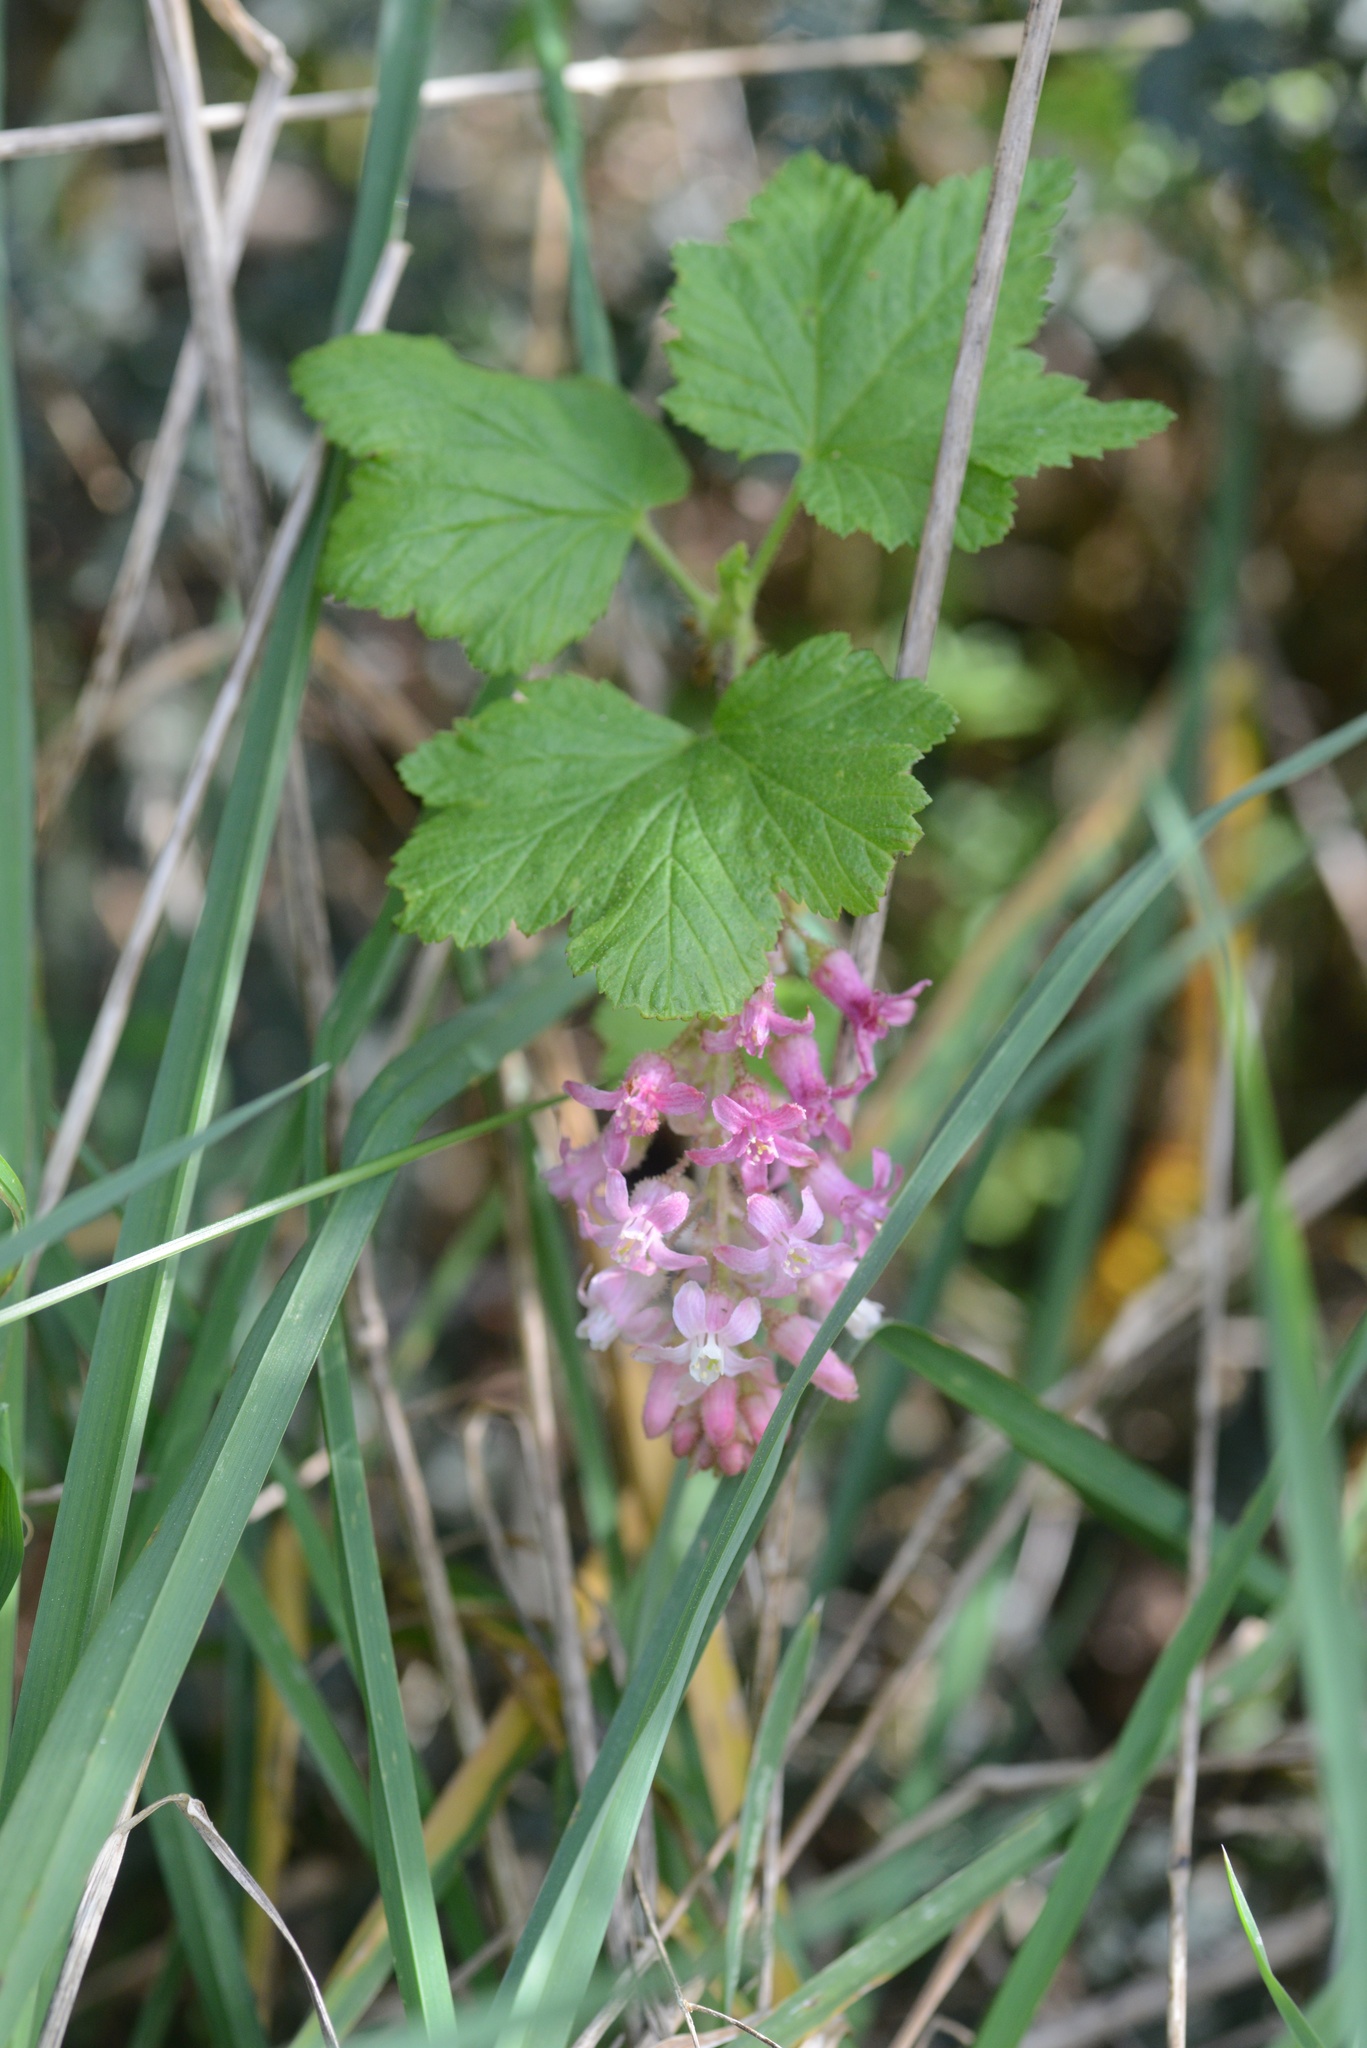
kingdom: Plantae
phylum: Tracheophyta
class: Magnoliopsida
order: Saxifragales
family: Grossulariaceae
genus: Ribes
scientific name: Ribes sanguineum
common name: Flowering currant
